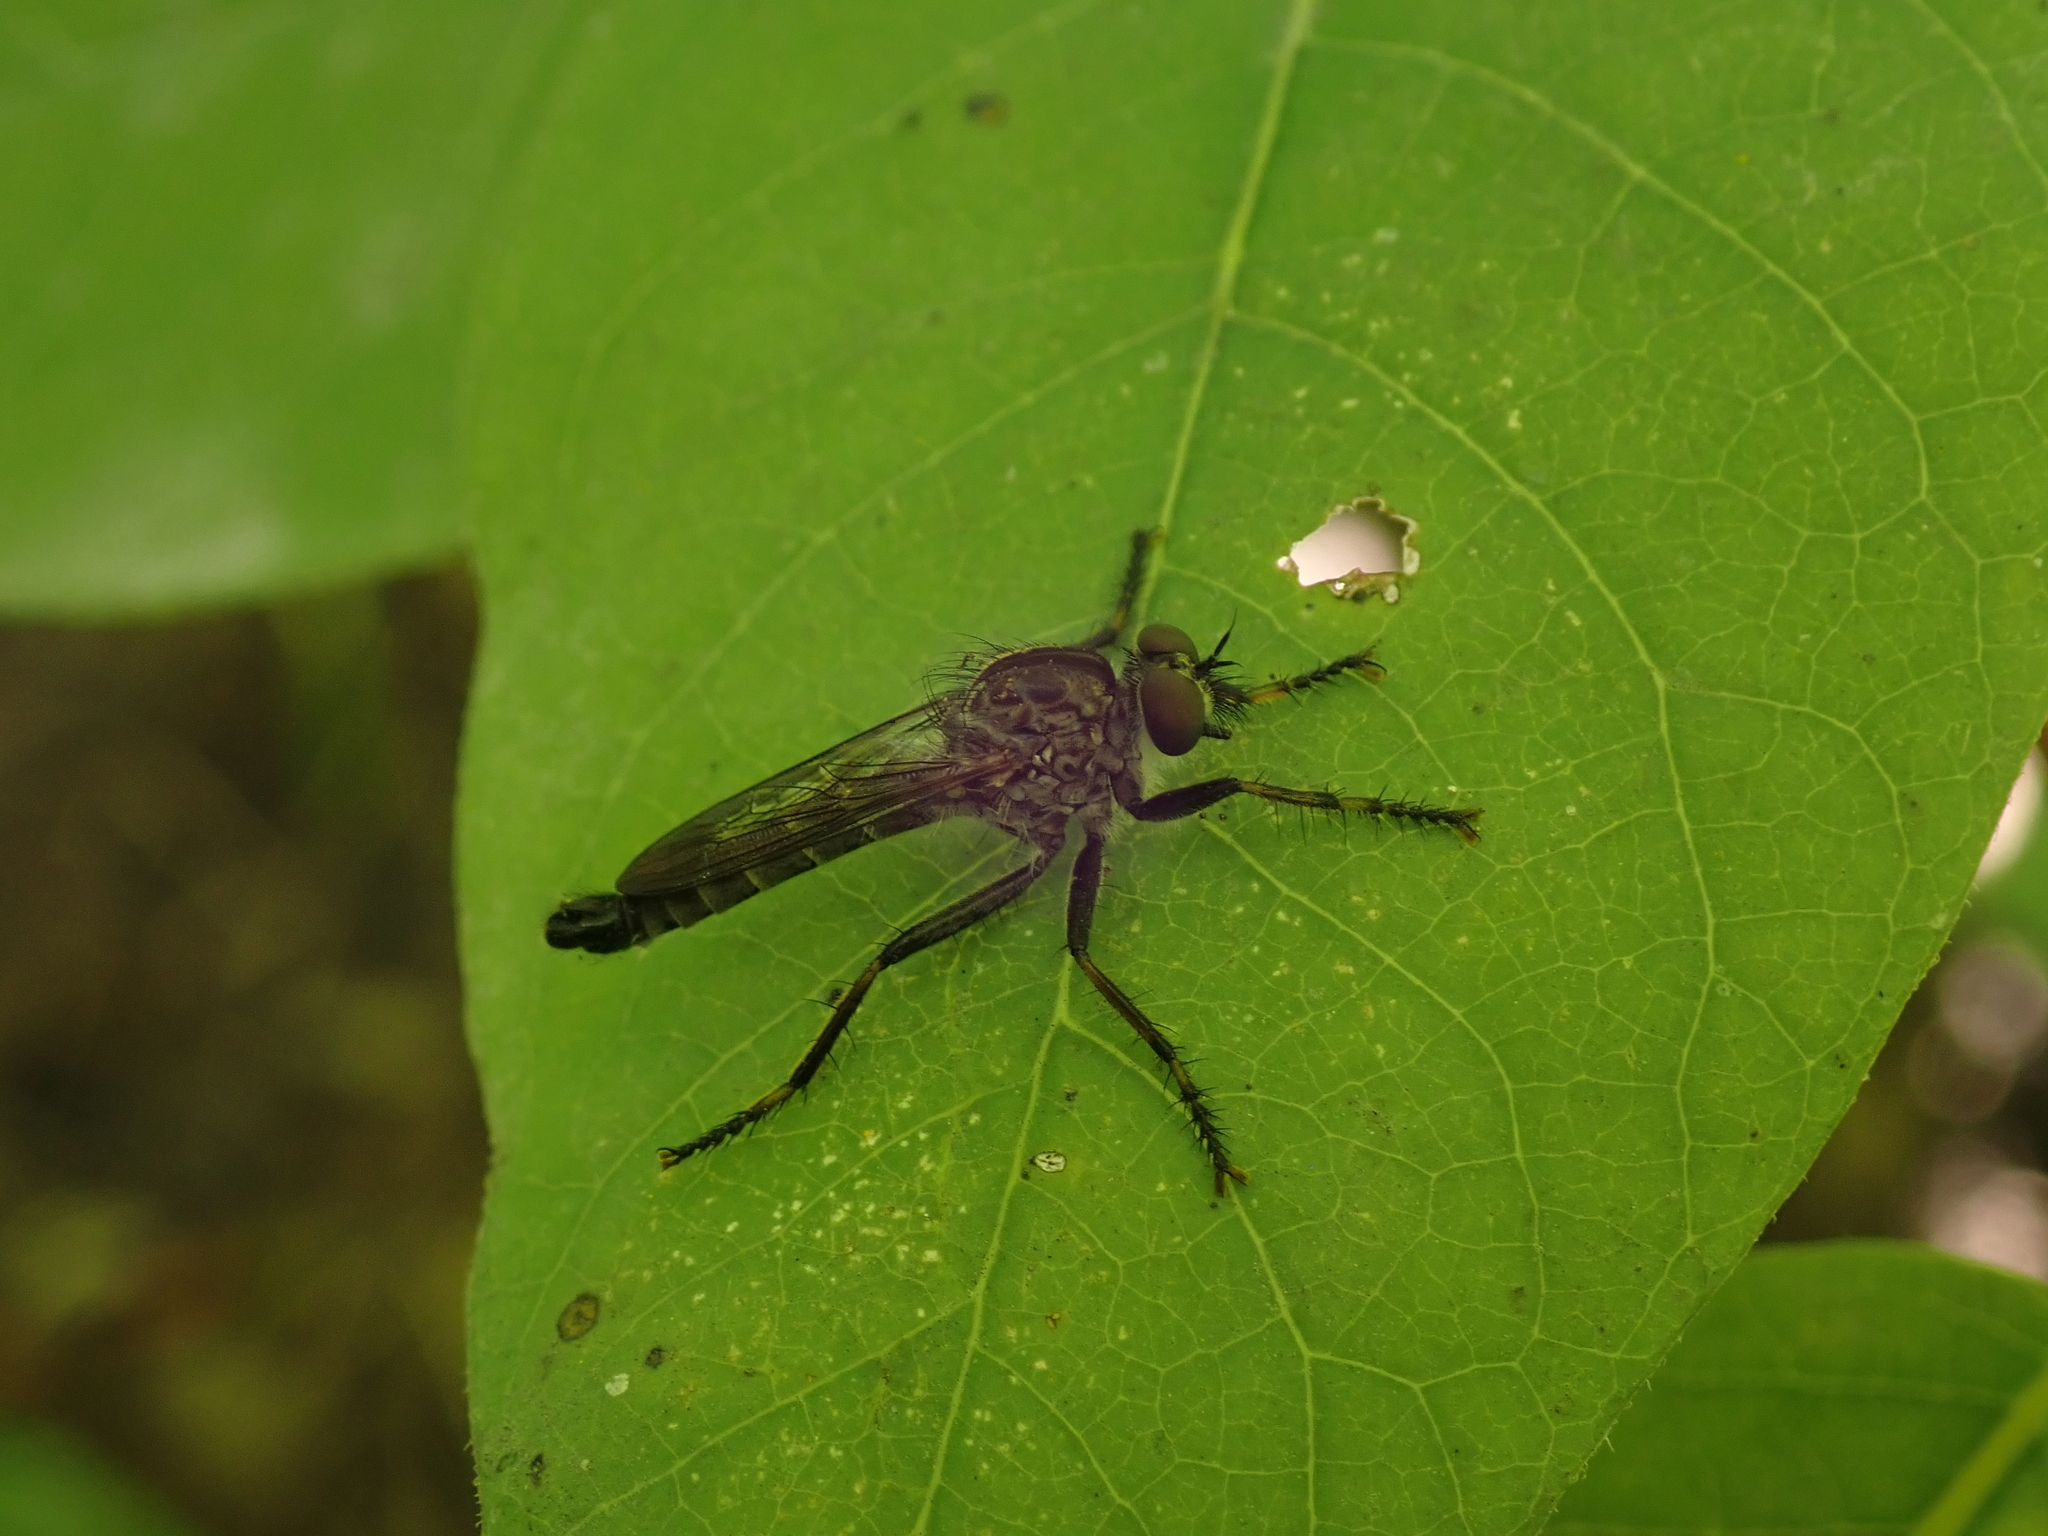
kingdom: Animalia
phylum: Arthropoda
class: Insecta
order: Diptera
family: Asilidae
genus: Machimus
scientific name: Machimus sadyates
